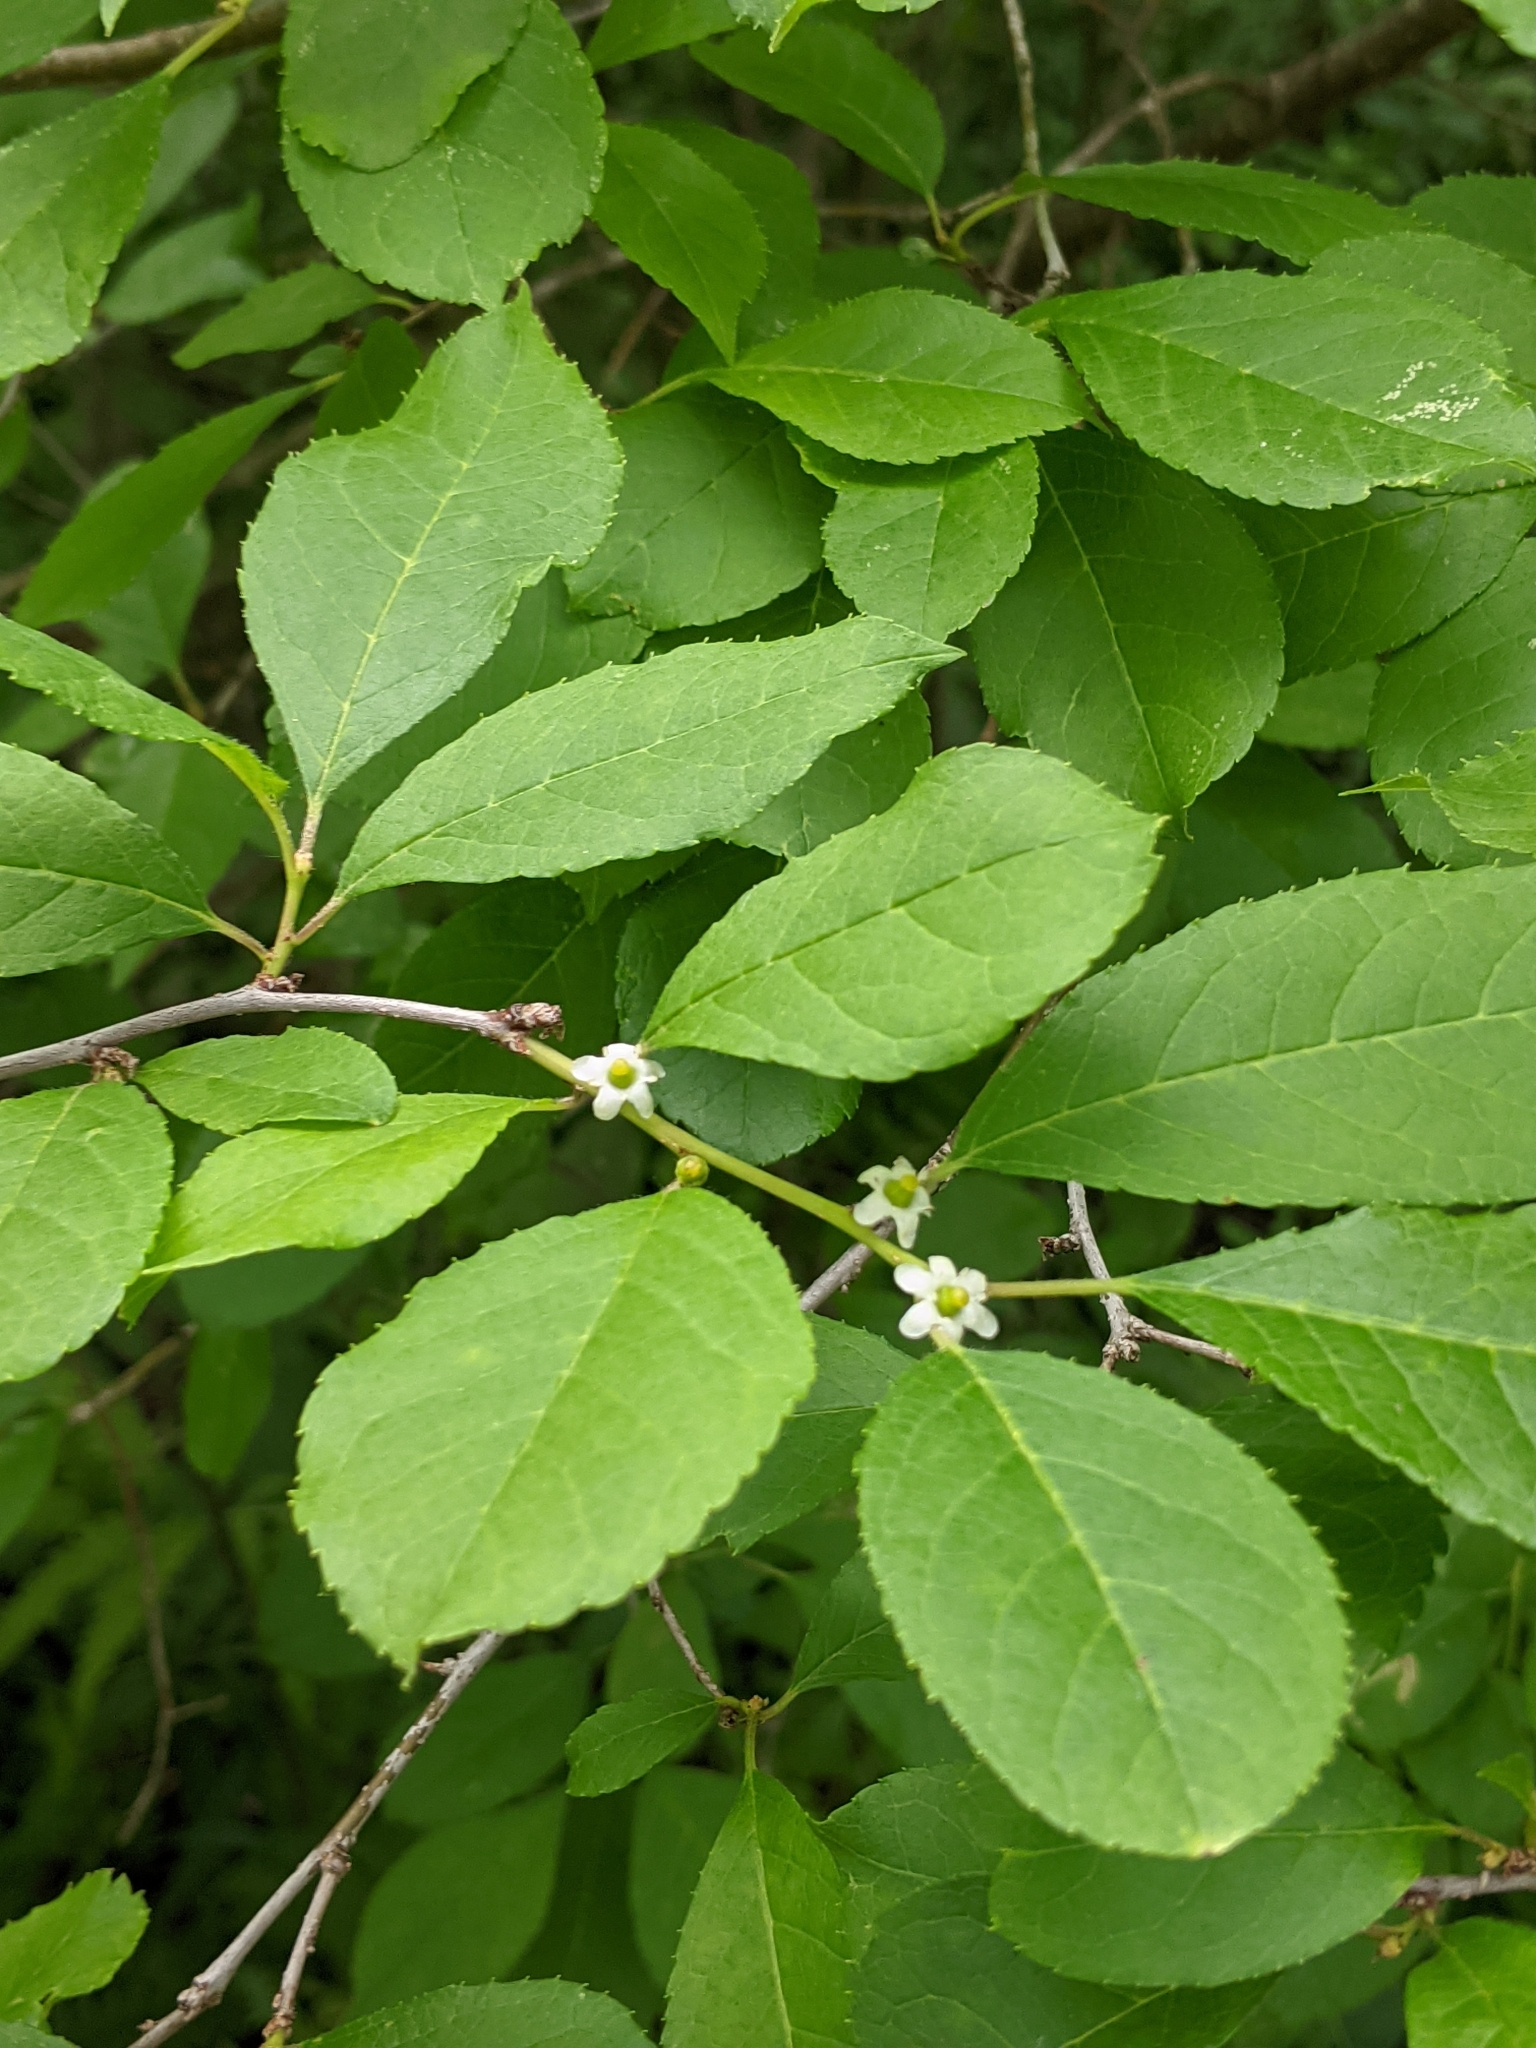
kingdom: Plantae
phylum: Tracheophyta
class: Magnoliopsida
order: Aquifoliales
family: Aquifoliaceae
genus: Ilex
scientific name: Ilex verticillata
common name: Virginia winterberry
